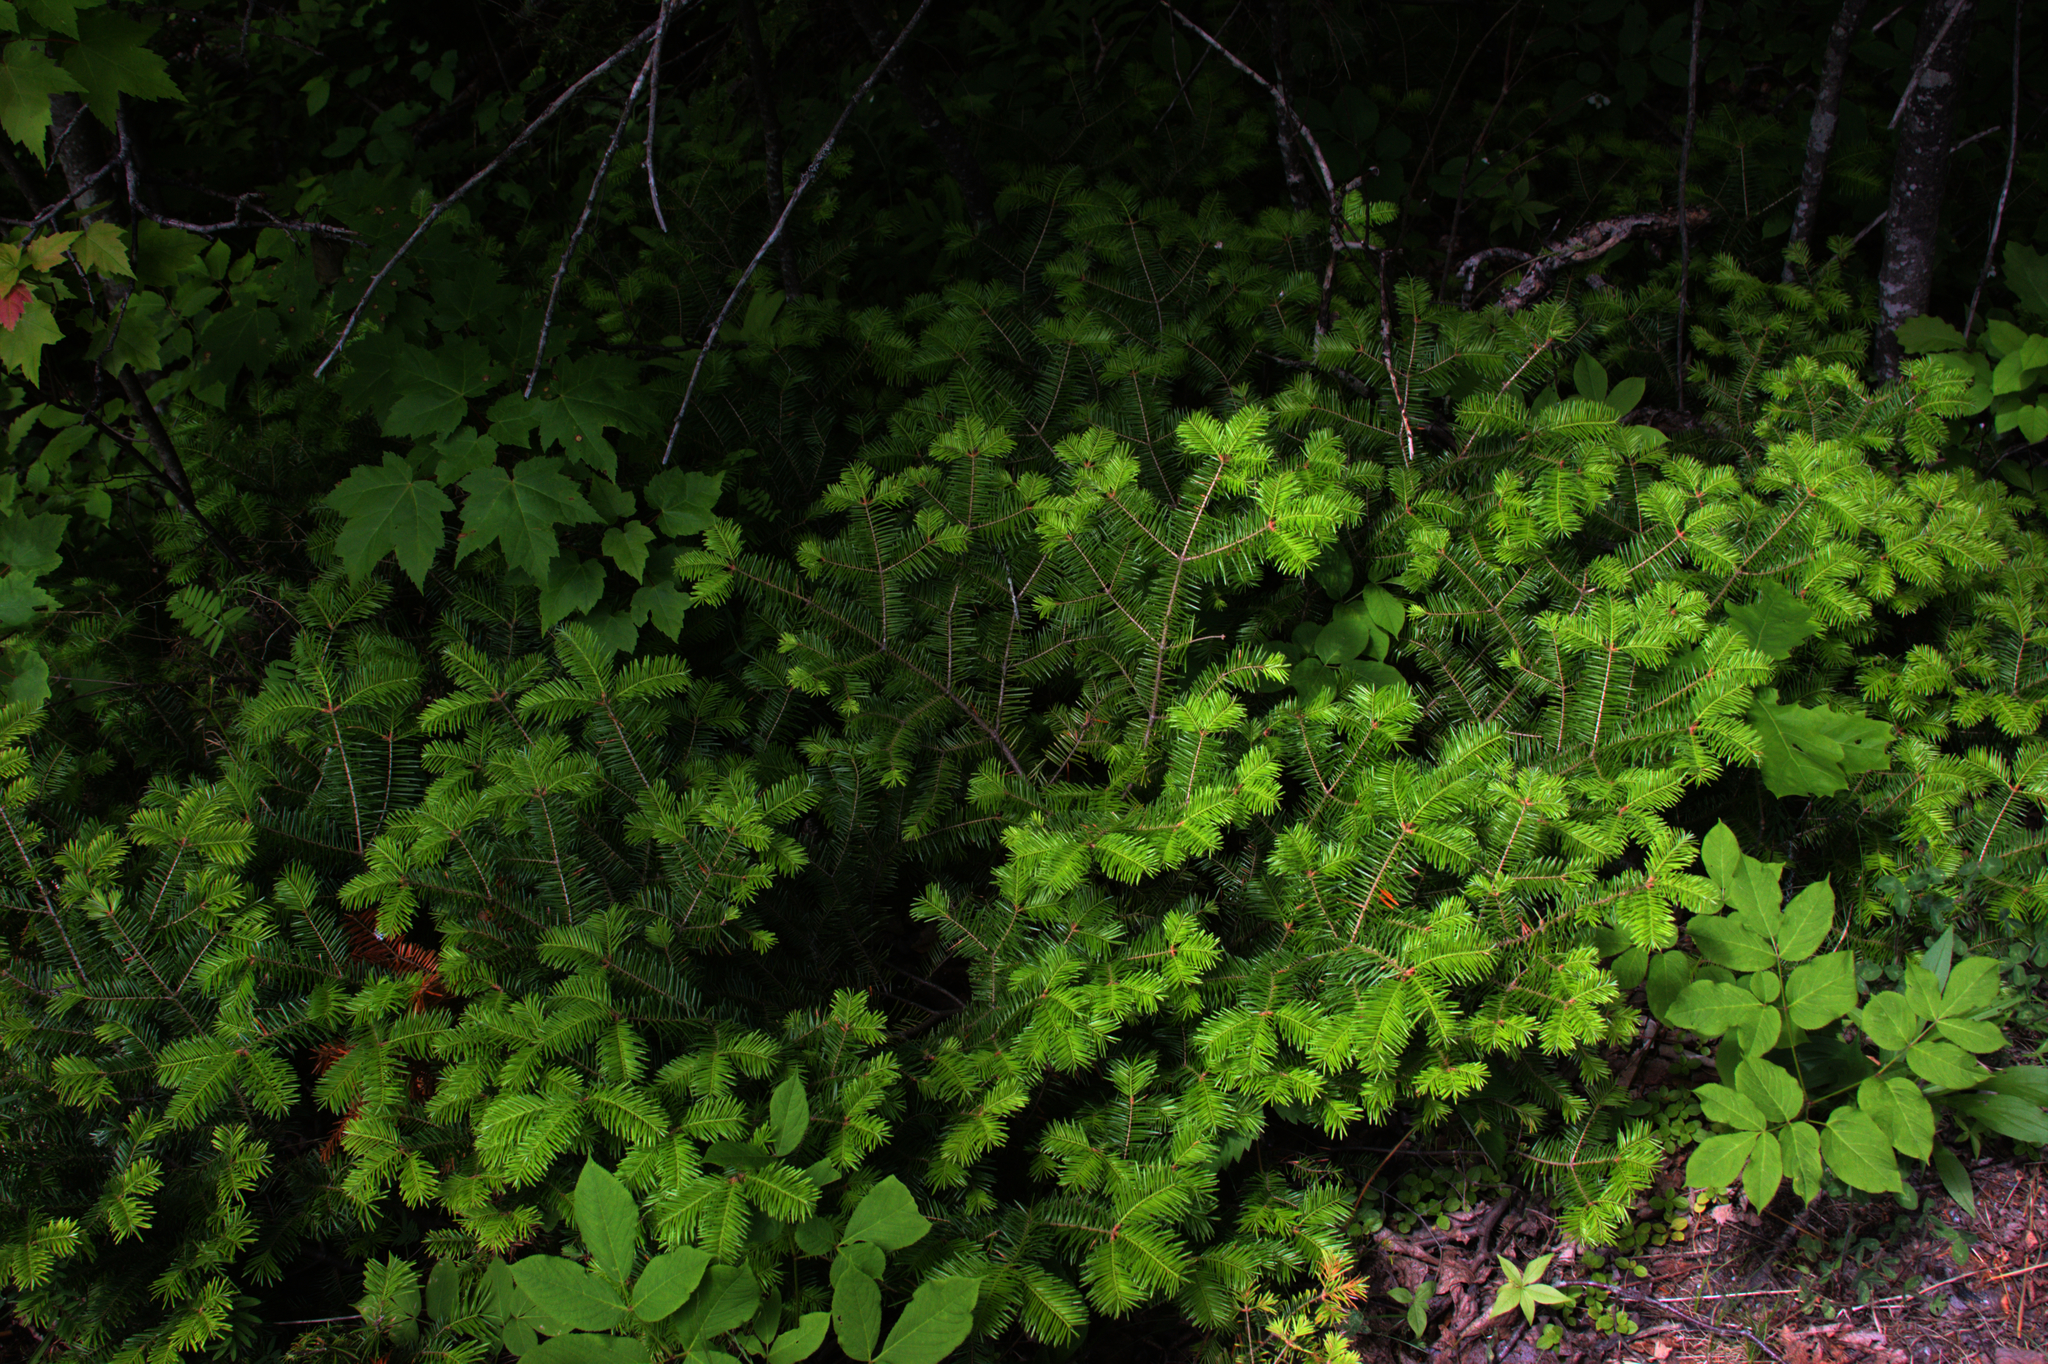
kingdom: Plantae
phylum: Tracheophyta
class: Pinopsida
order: Pinales
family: Pinaceae
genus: Abies
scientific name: Abies balsamea
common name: Balsam fir
